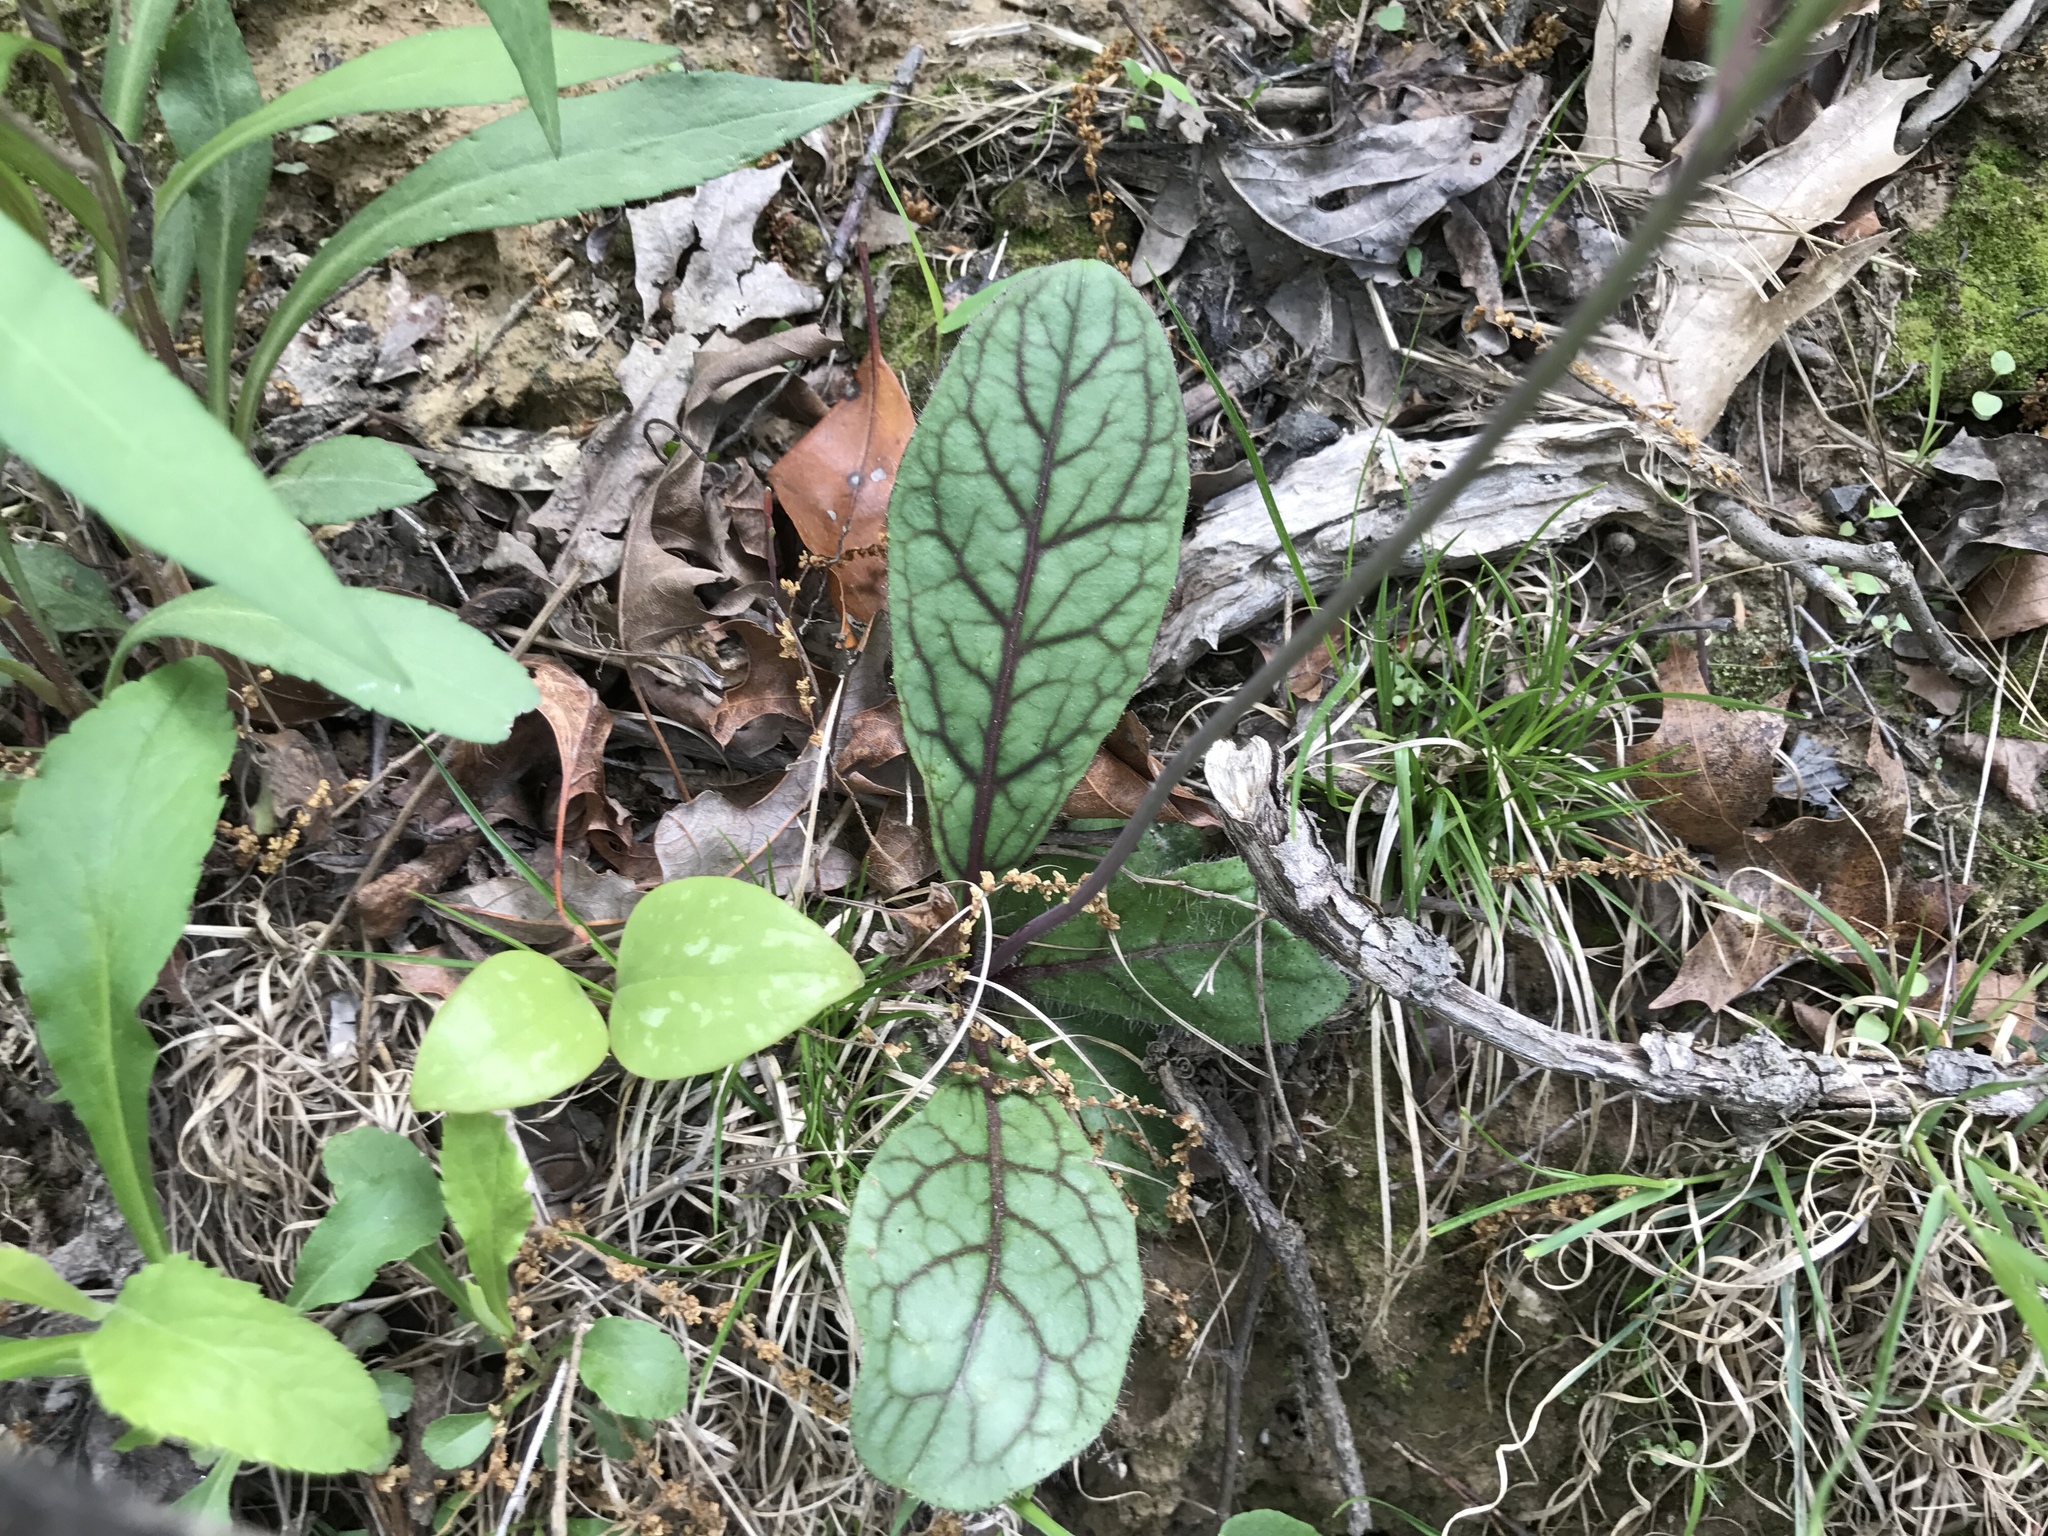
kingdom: Plantae
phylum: Tracheophyta
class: Magnoliopsida
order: Asterales
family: Asteraceae
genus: Hieracium
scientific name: Hieracium venosum
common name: Rattlesnake hawkweed
